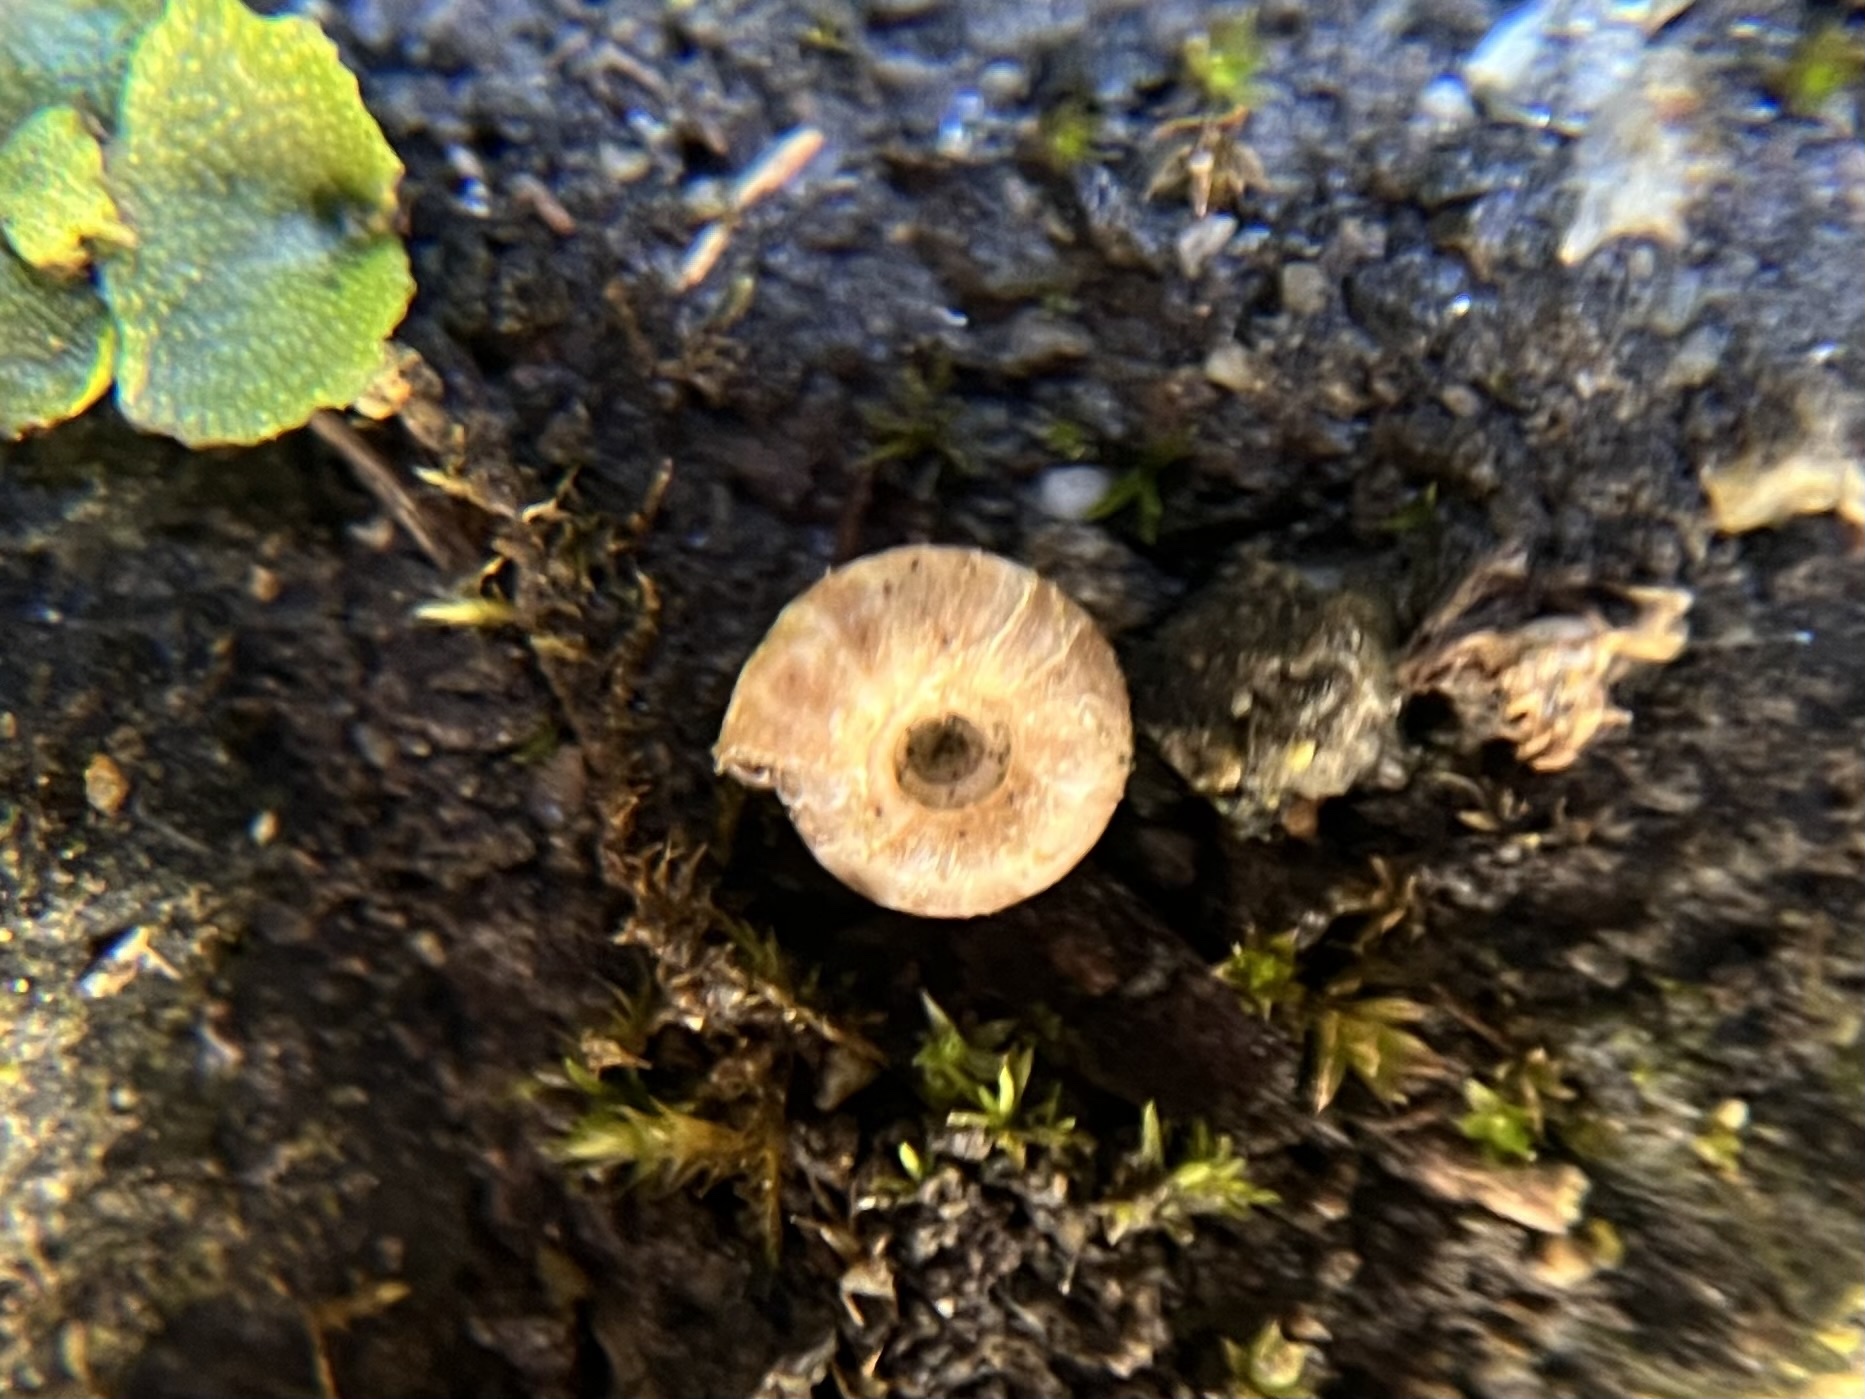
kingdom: Animalia
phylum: Mollusca
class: Gastropoda
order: Stylommatophora
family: Discidae
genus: Discus
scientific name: Discus rotundatus
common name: Rounded snail
